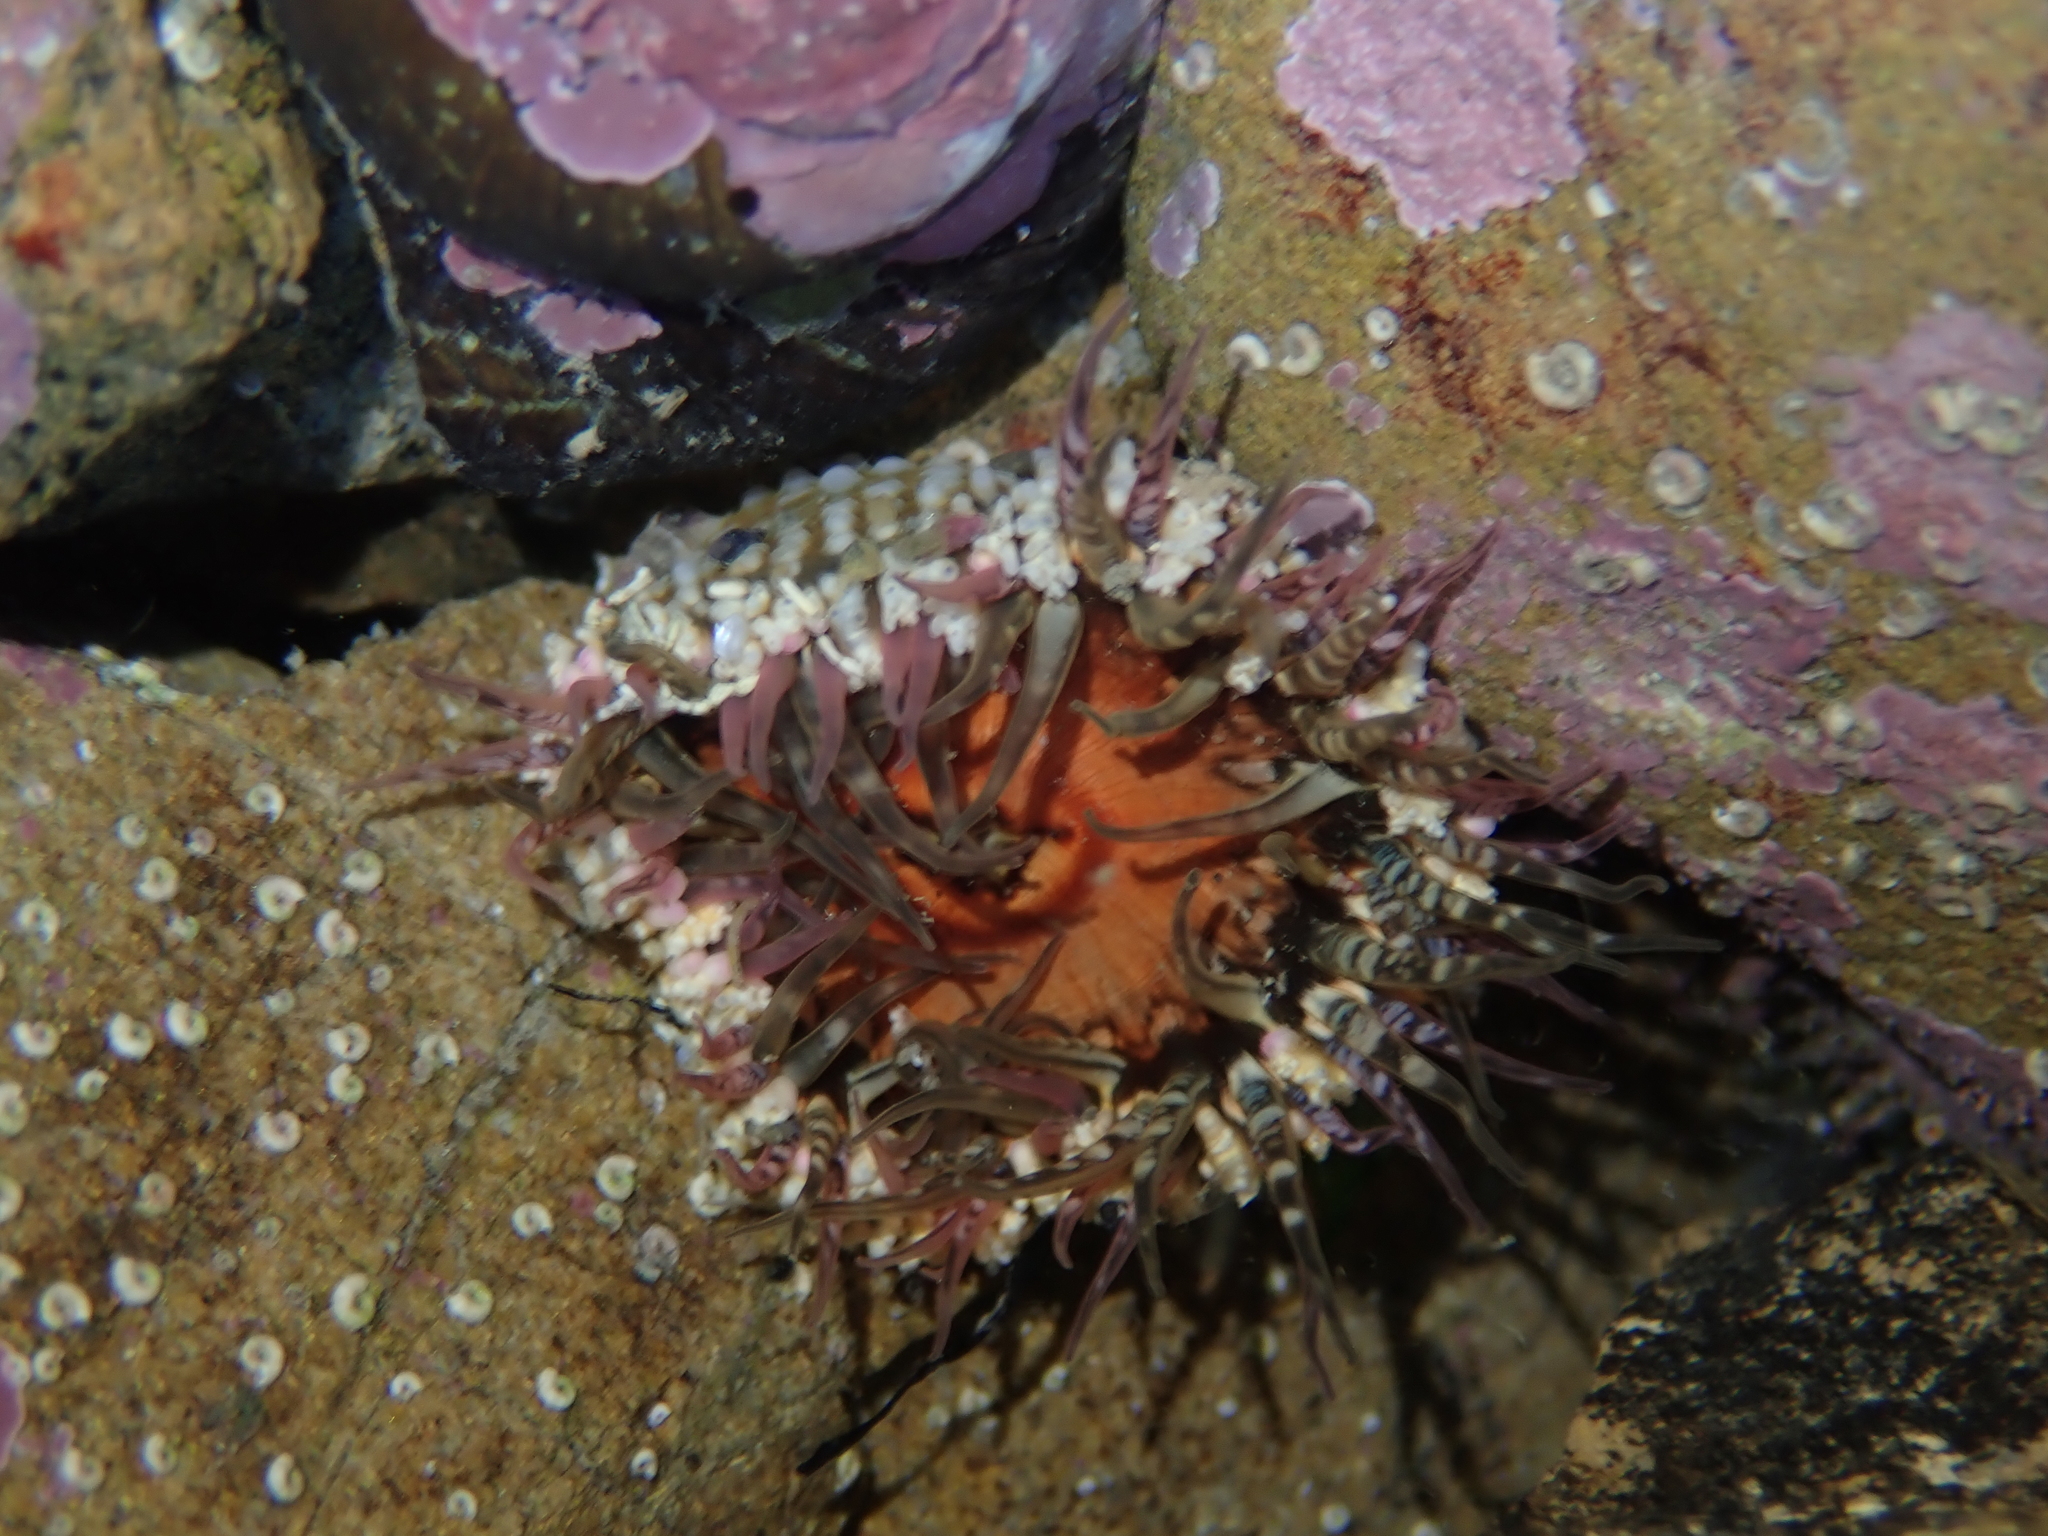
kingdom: Animalia
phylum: Cnidaria
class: Anthozoa
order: Actiniaria
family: Actiniidae
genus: Oulactis
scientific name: Oulactis muscosa
